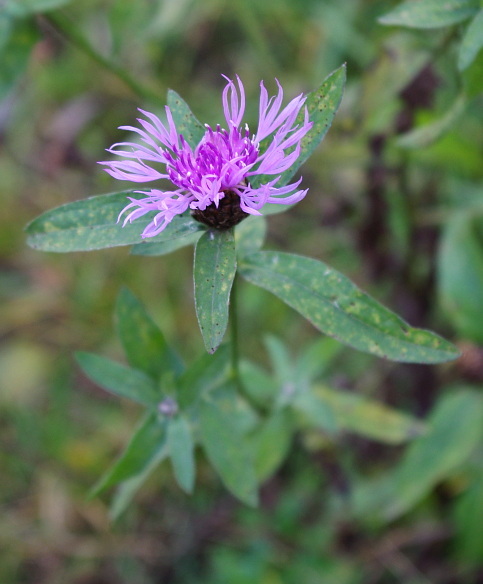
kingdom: Plantae
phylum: Tracheophyta
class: Magnoliopsida
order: Asterales
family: Asteraceae
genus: Centaurea
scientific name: Centaurea jacea
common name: Brown knapweed
